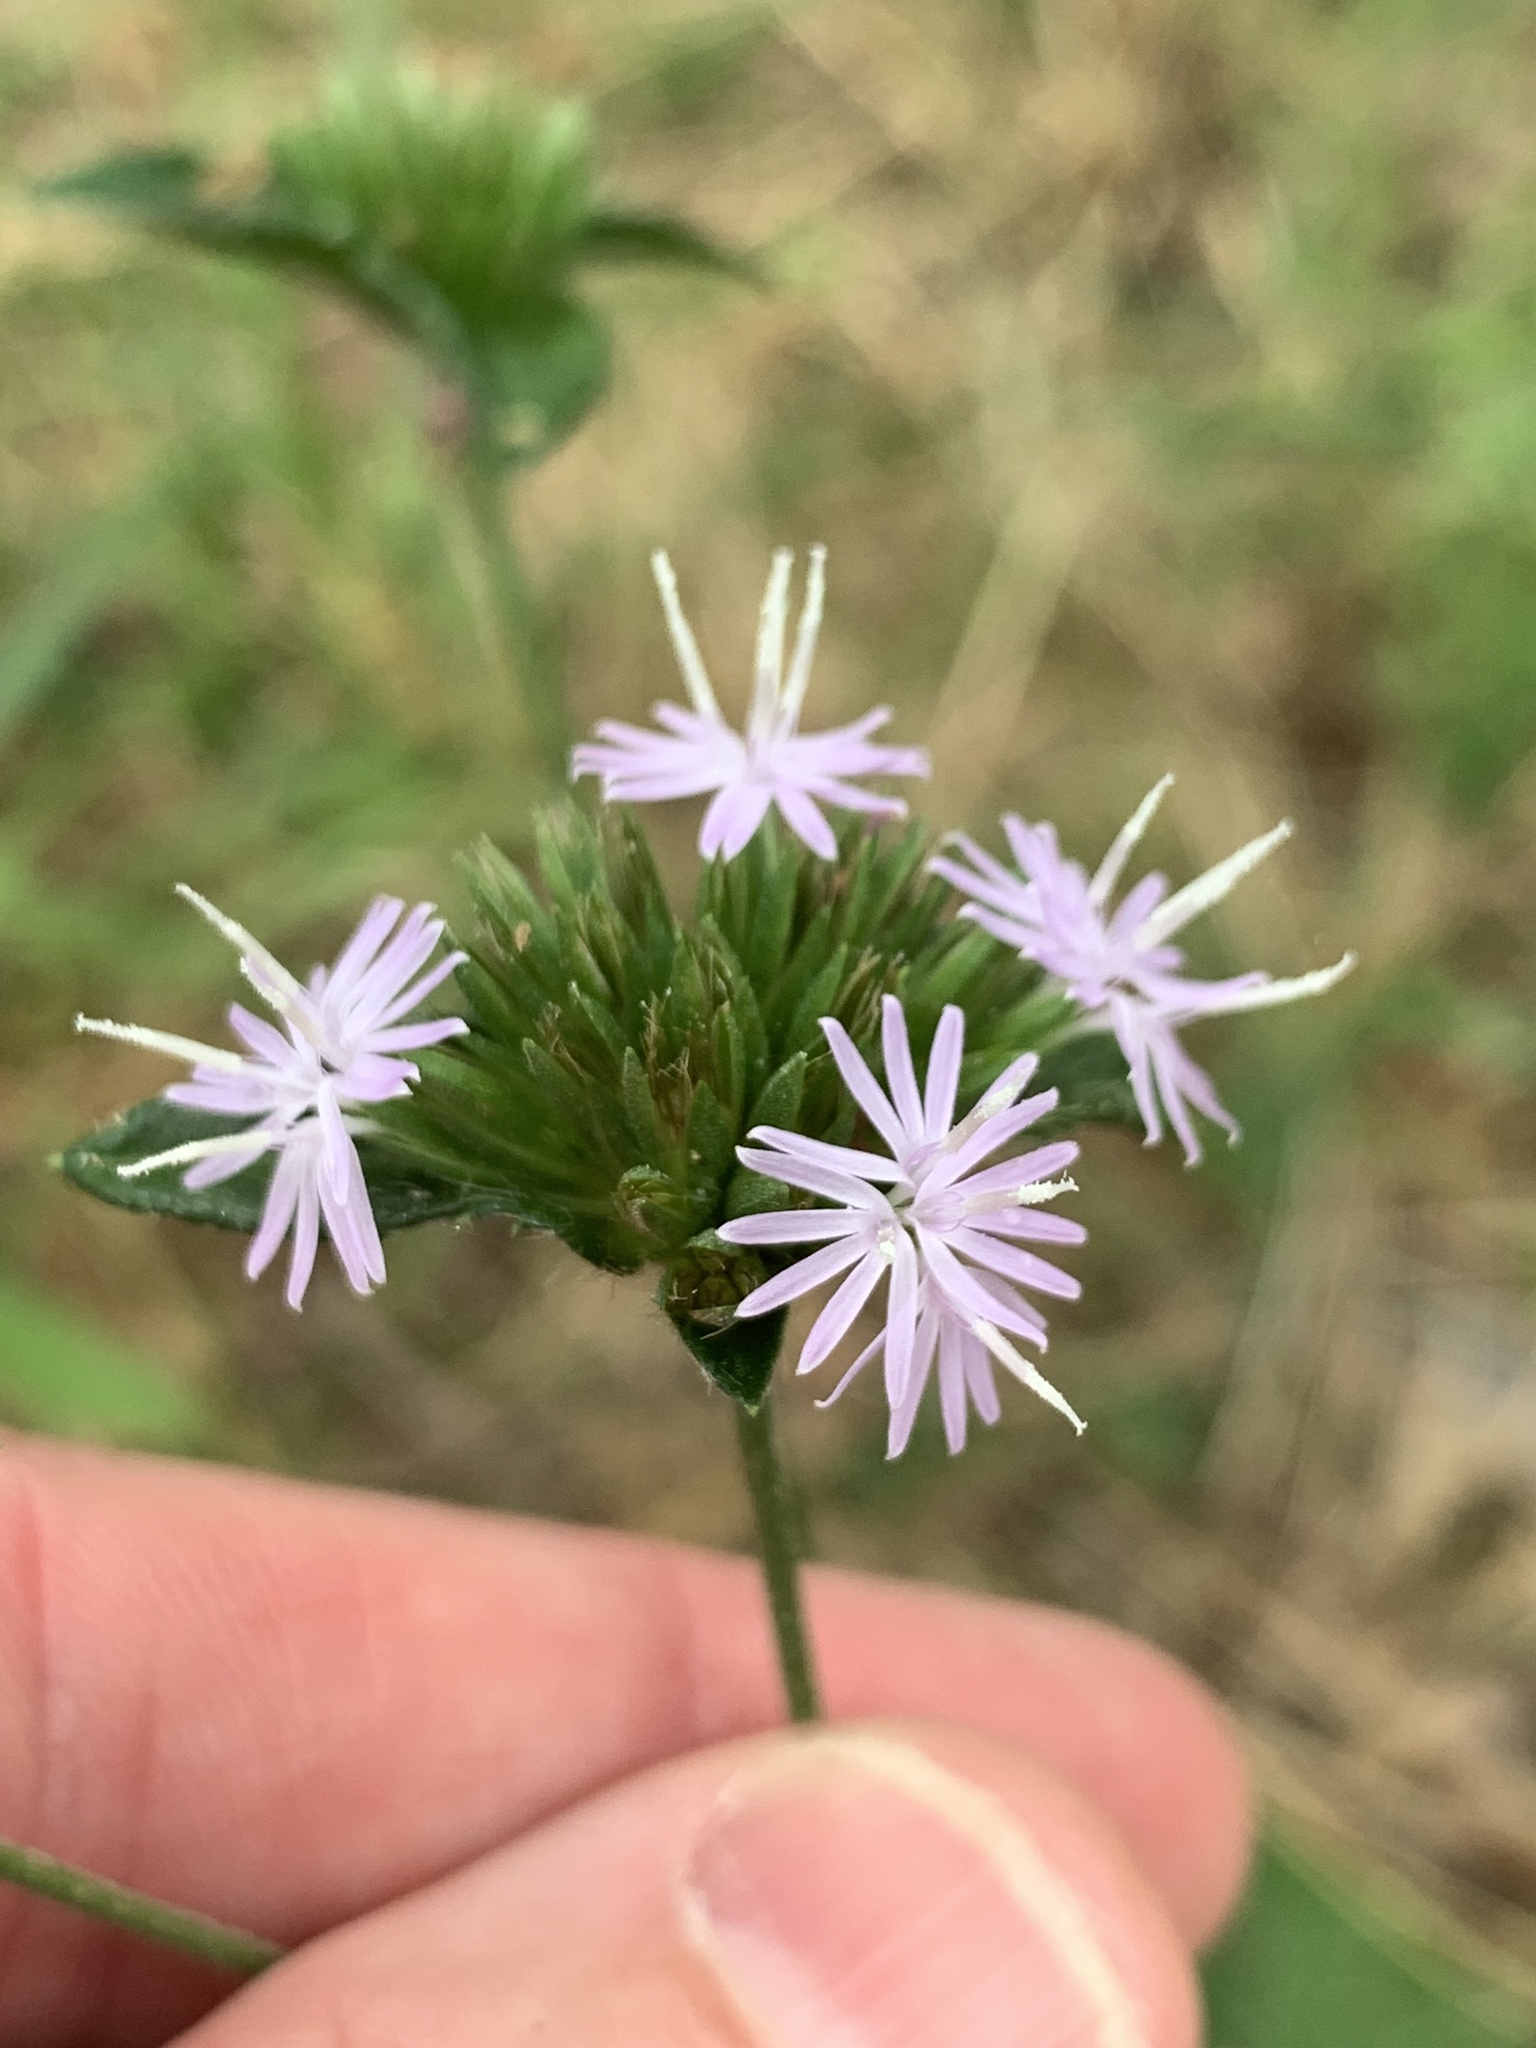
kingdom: Plantae
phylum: Tracheophyta
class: Magnoliopsida
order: Asterales
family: Asteraceae
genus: Elephantopus
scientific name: Elephantopus tomentosus
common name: Tobacco-weed
